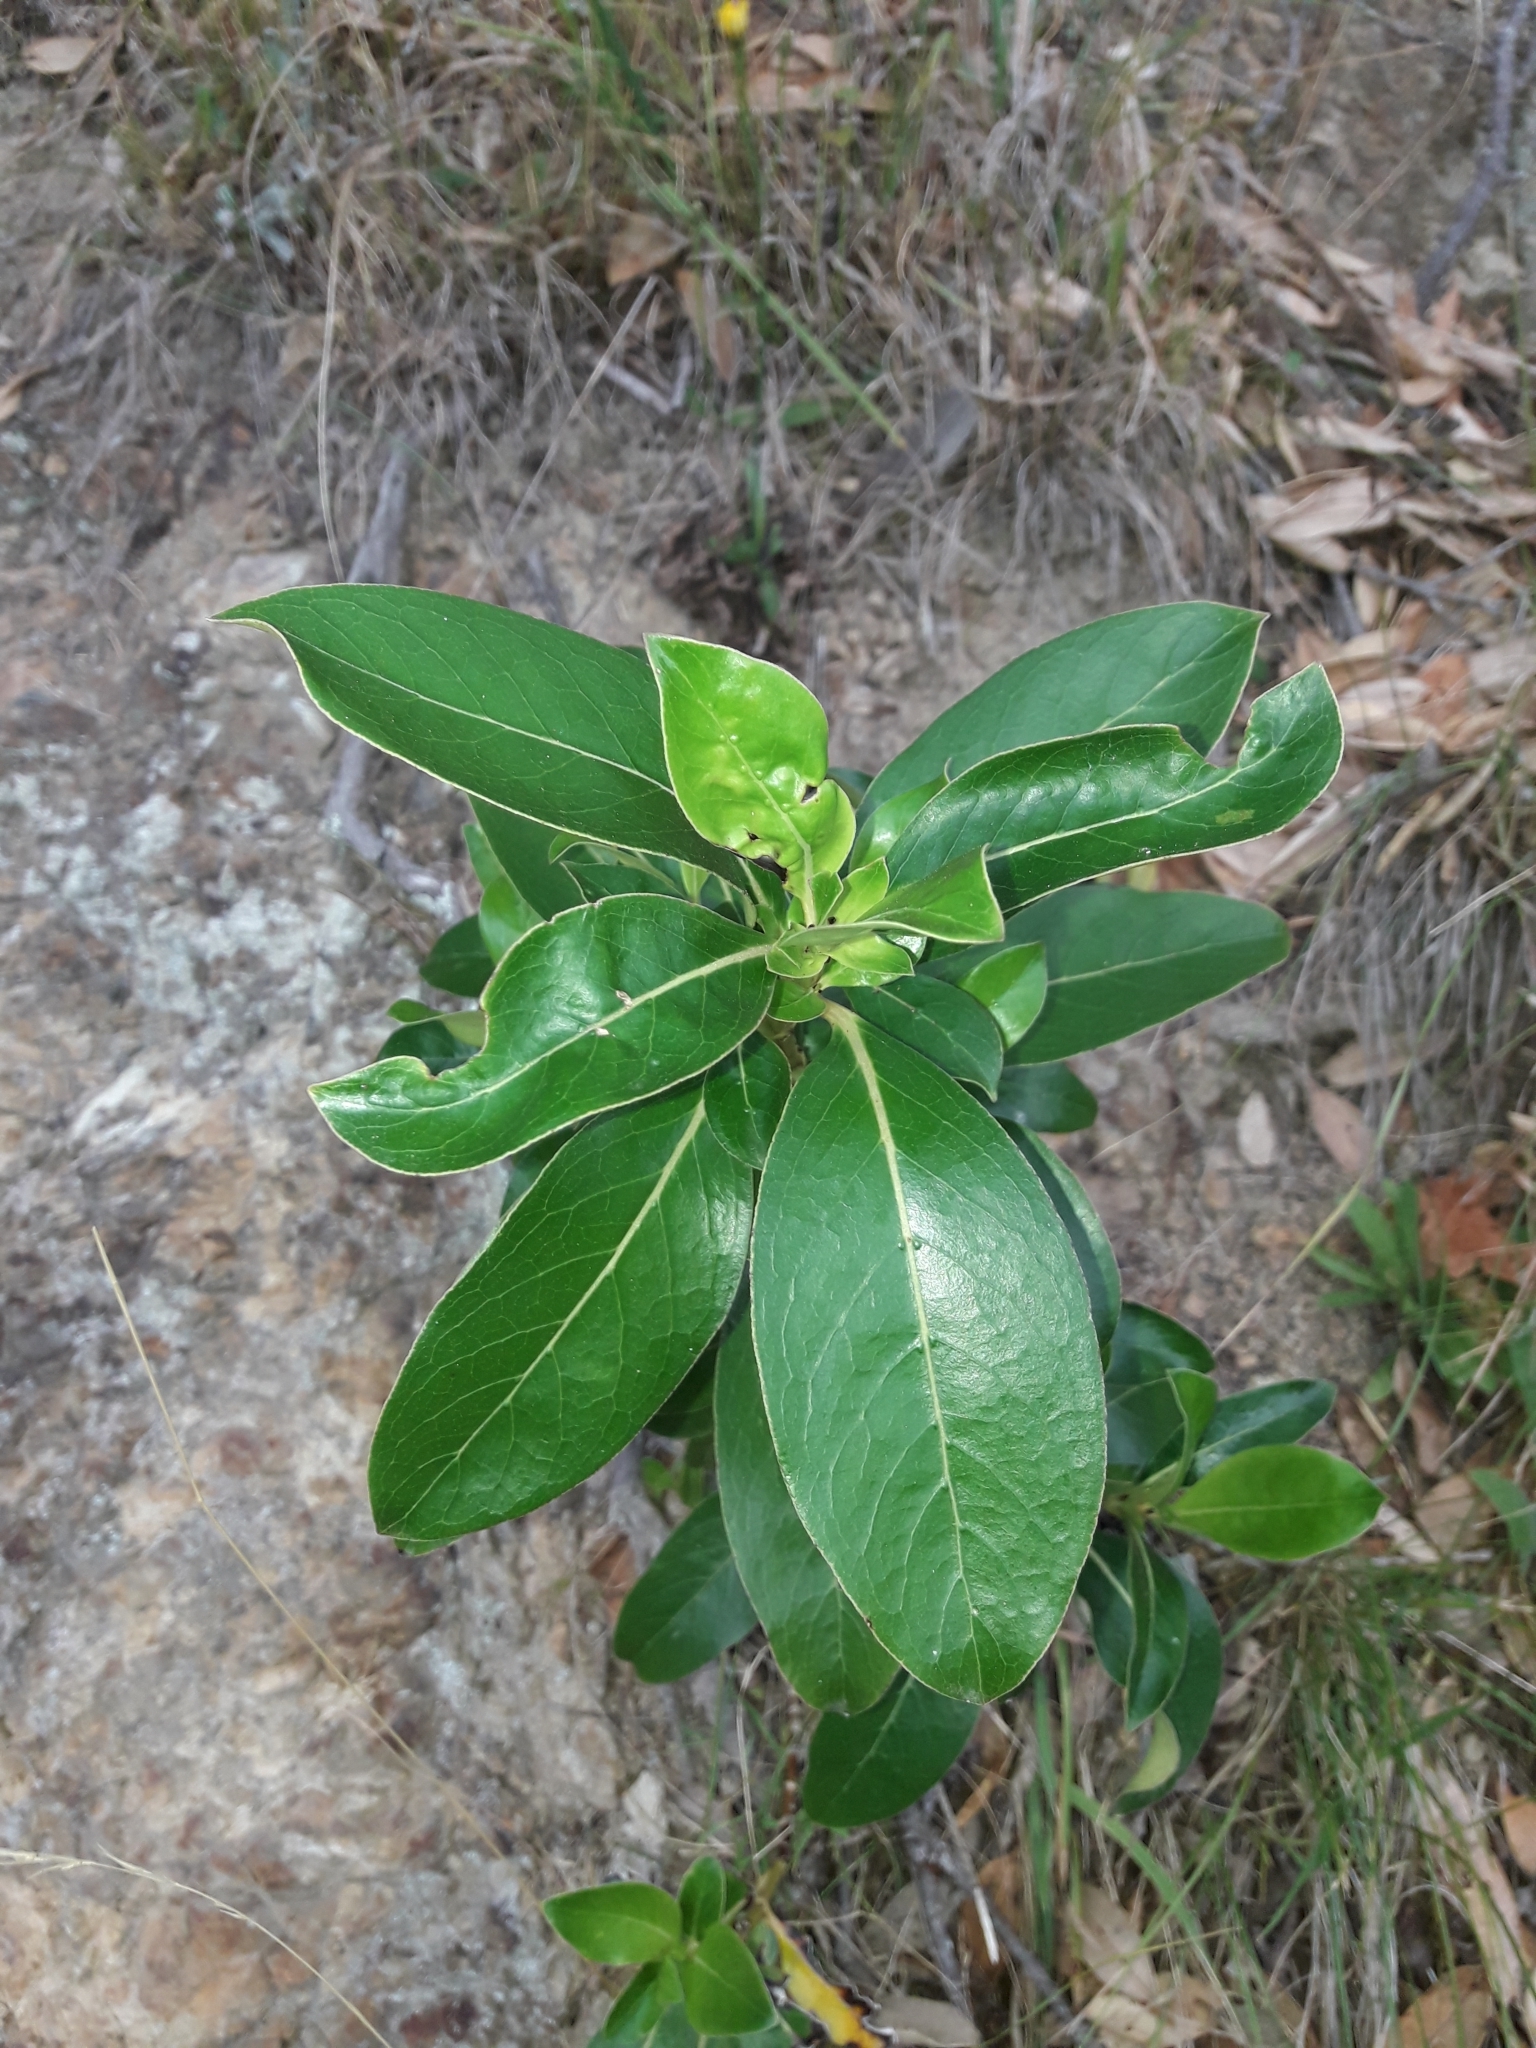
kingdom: Plantae
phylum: Tracheophyta
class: Magnoliopsida
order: Gentianales
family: Rubiaceae
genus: Coprosma
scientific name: Coprosma robusta
